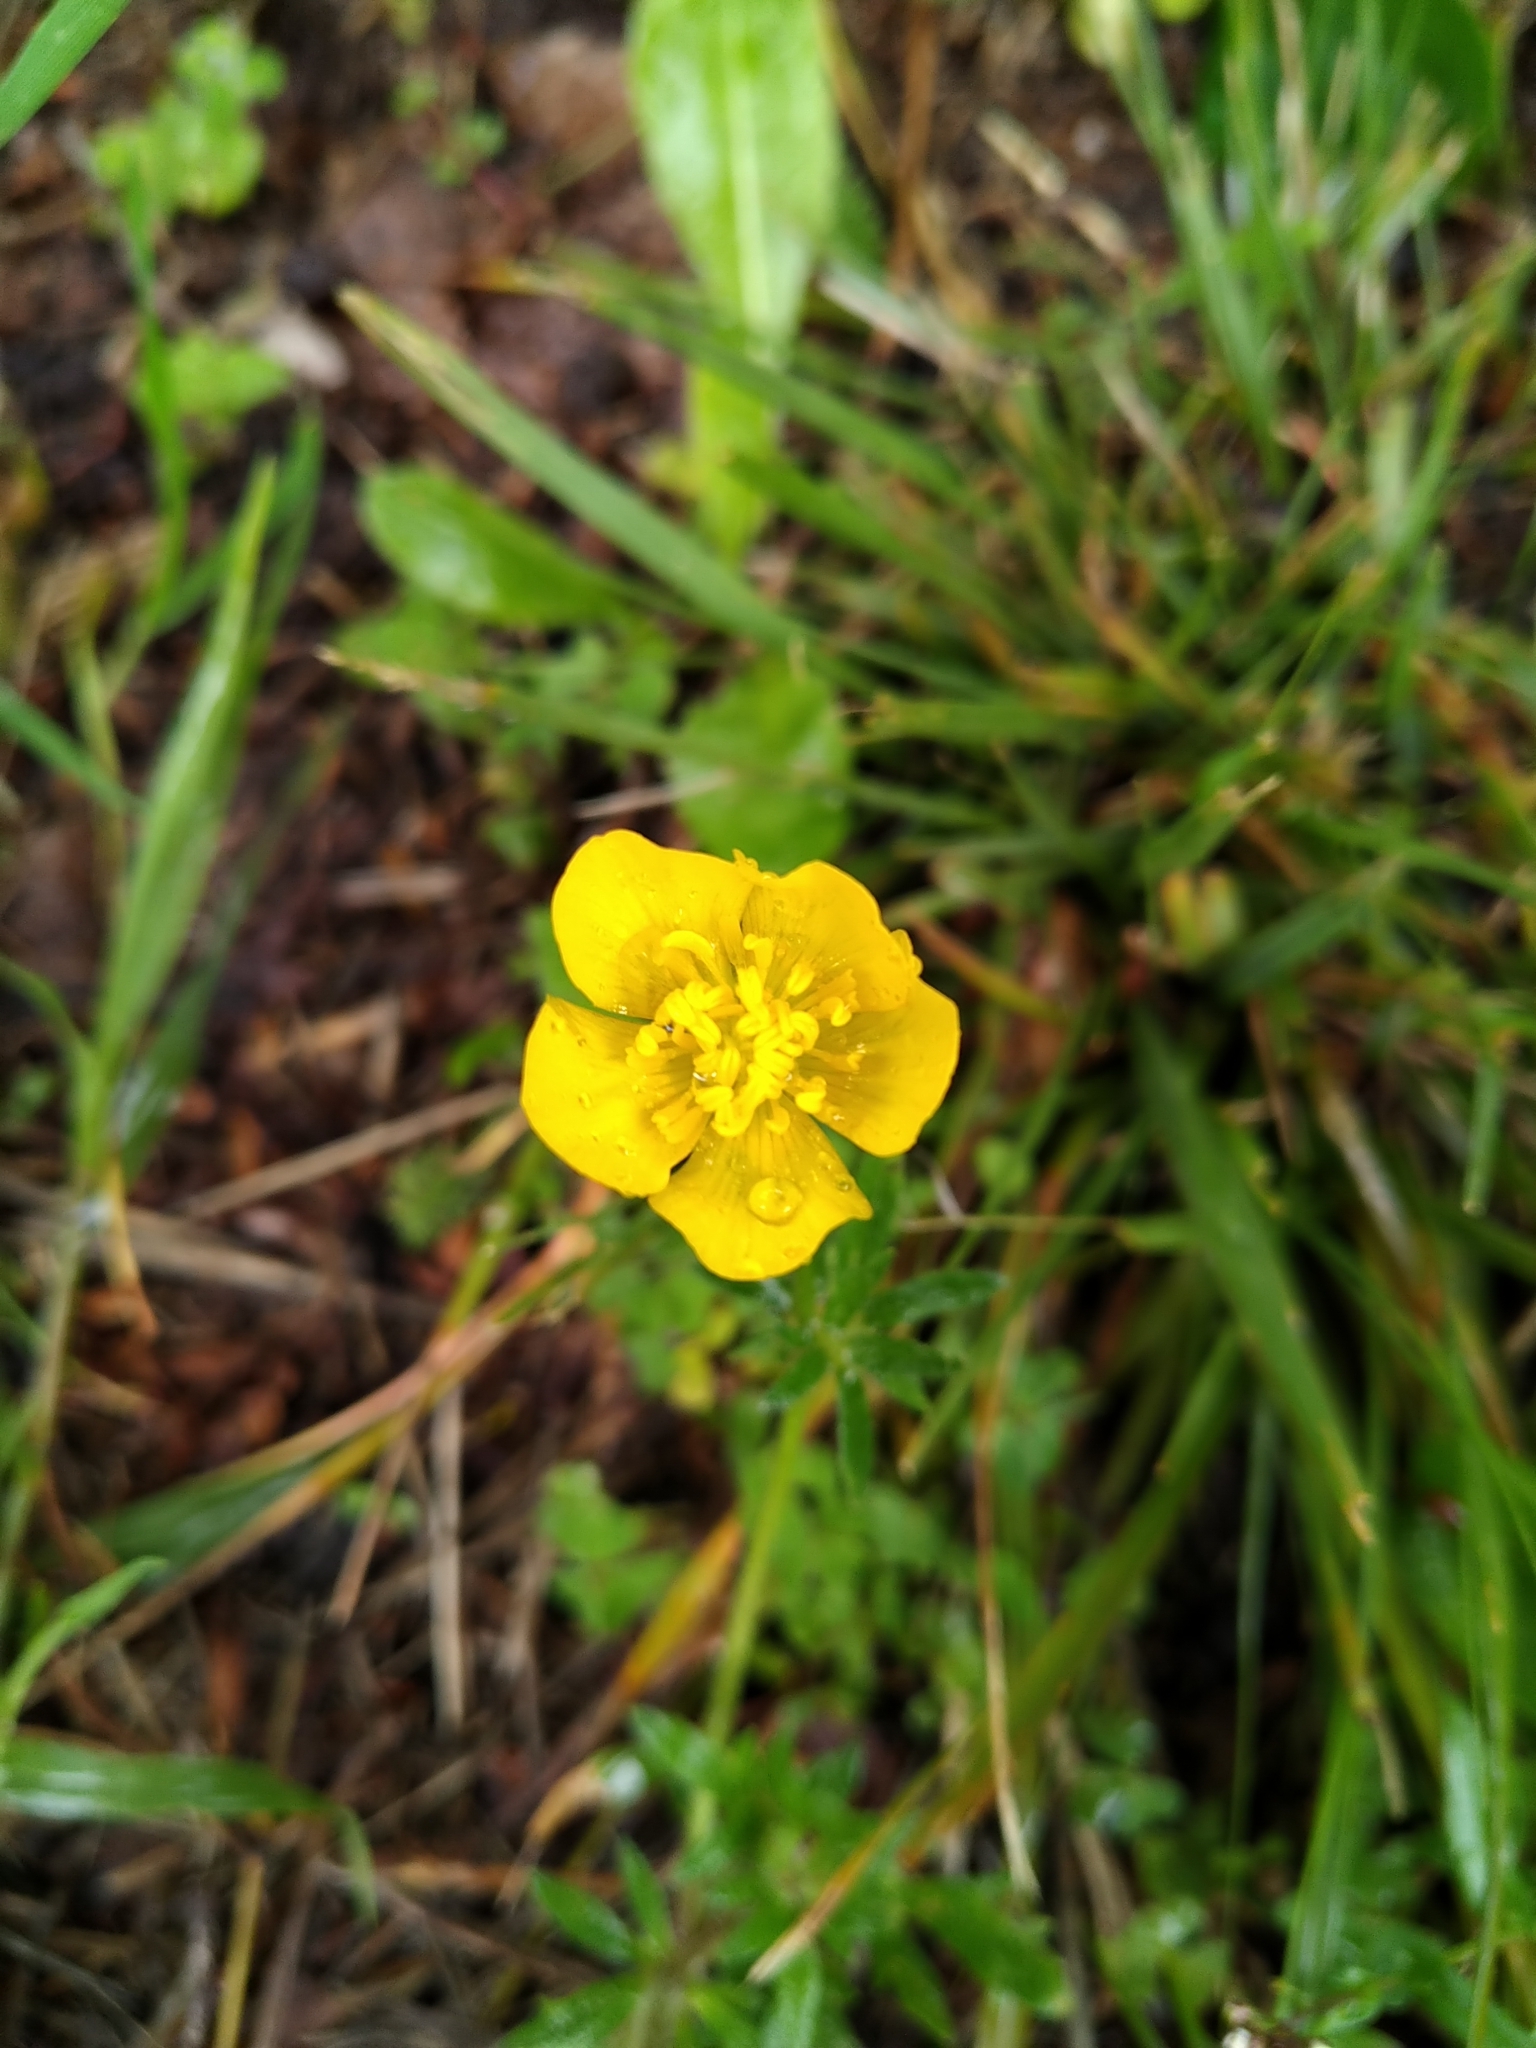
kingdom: Plantae
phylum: Tracheophyta
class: Magnoliopsida
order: Ranunculales
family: Ranunculaceae
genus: Ranunculus
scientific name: Ranunculus bulbosus
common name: Bulbous buttercup
